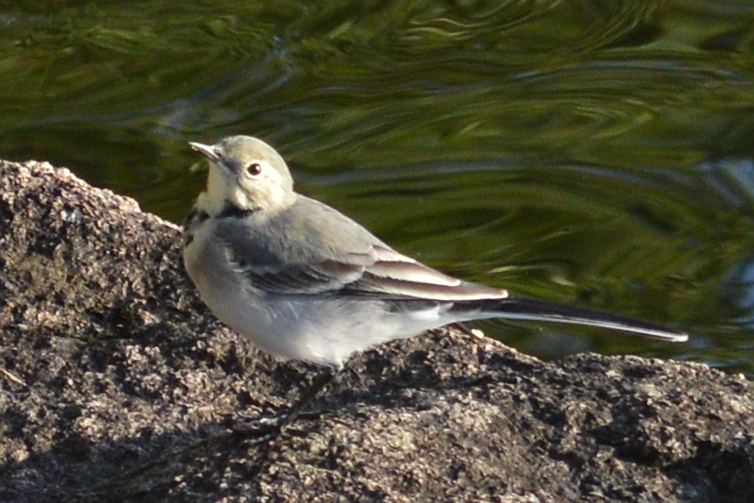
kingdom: Animalia
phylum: Chordata
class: Aves
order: Passeriformes
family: Motacillidae
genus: Motacilla
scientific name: Motacilla alba
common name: White wagtail
